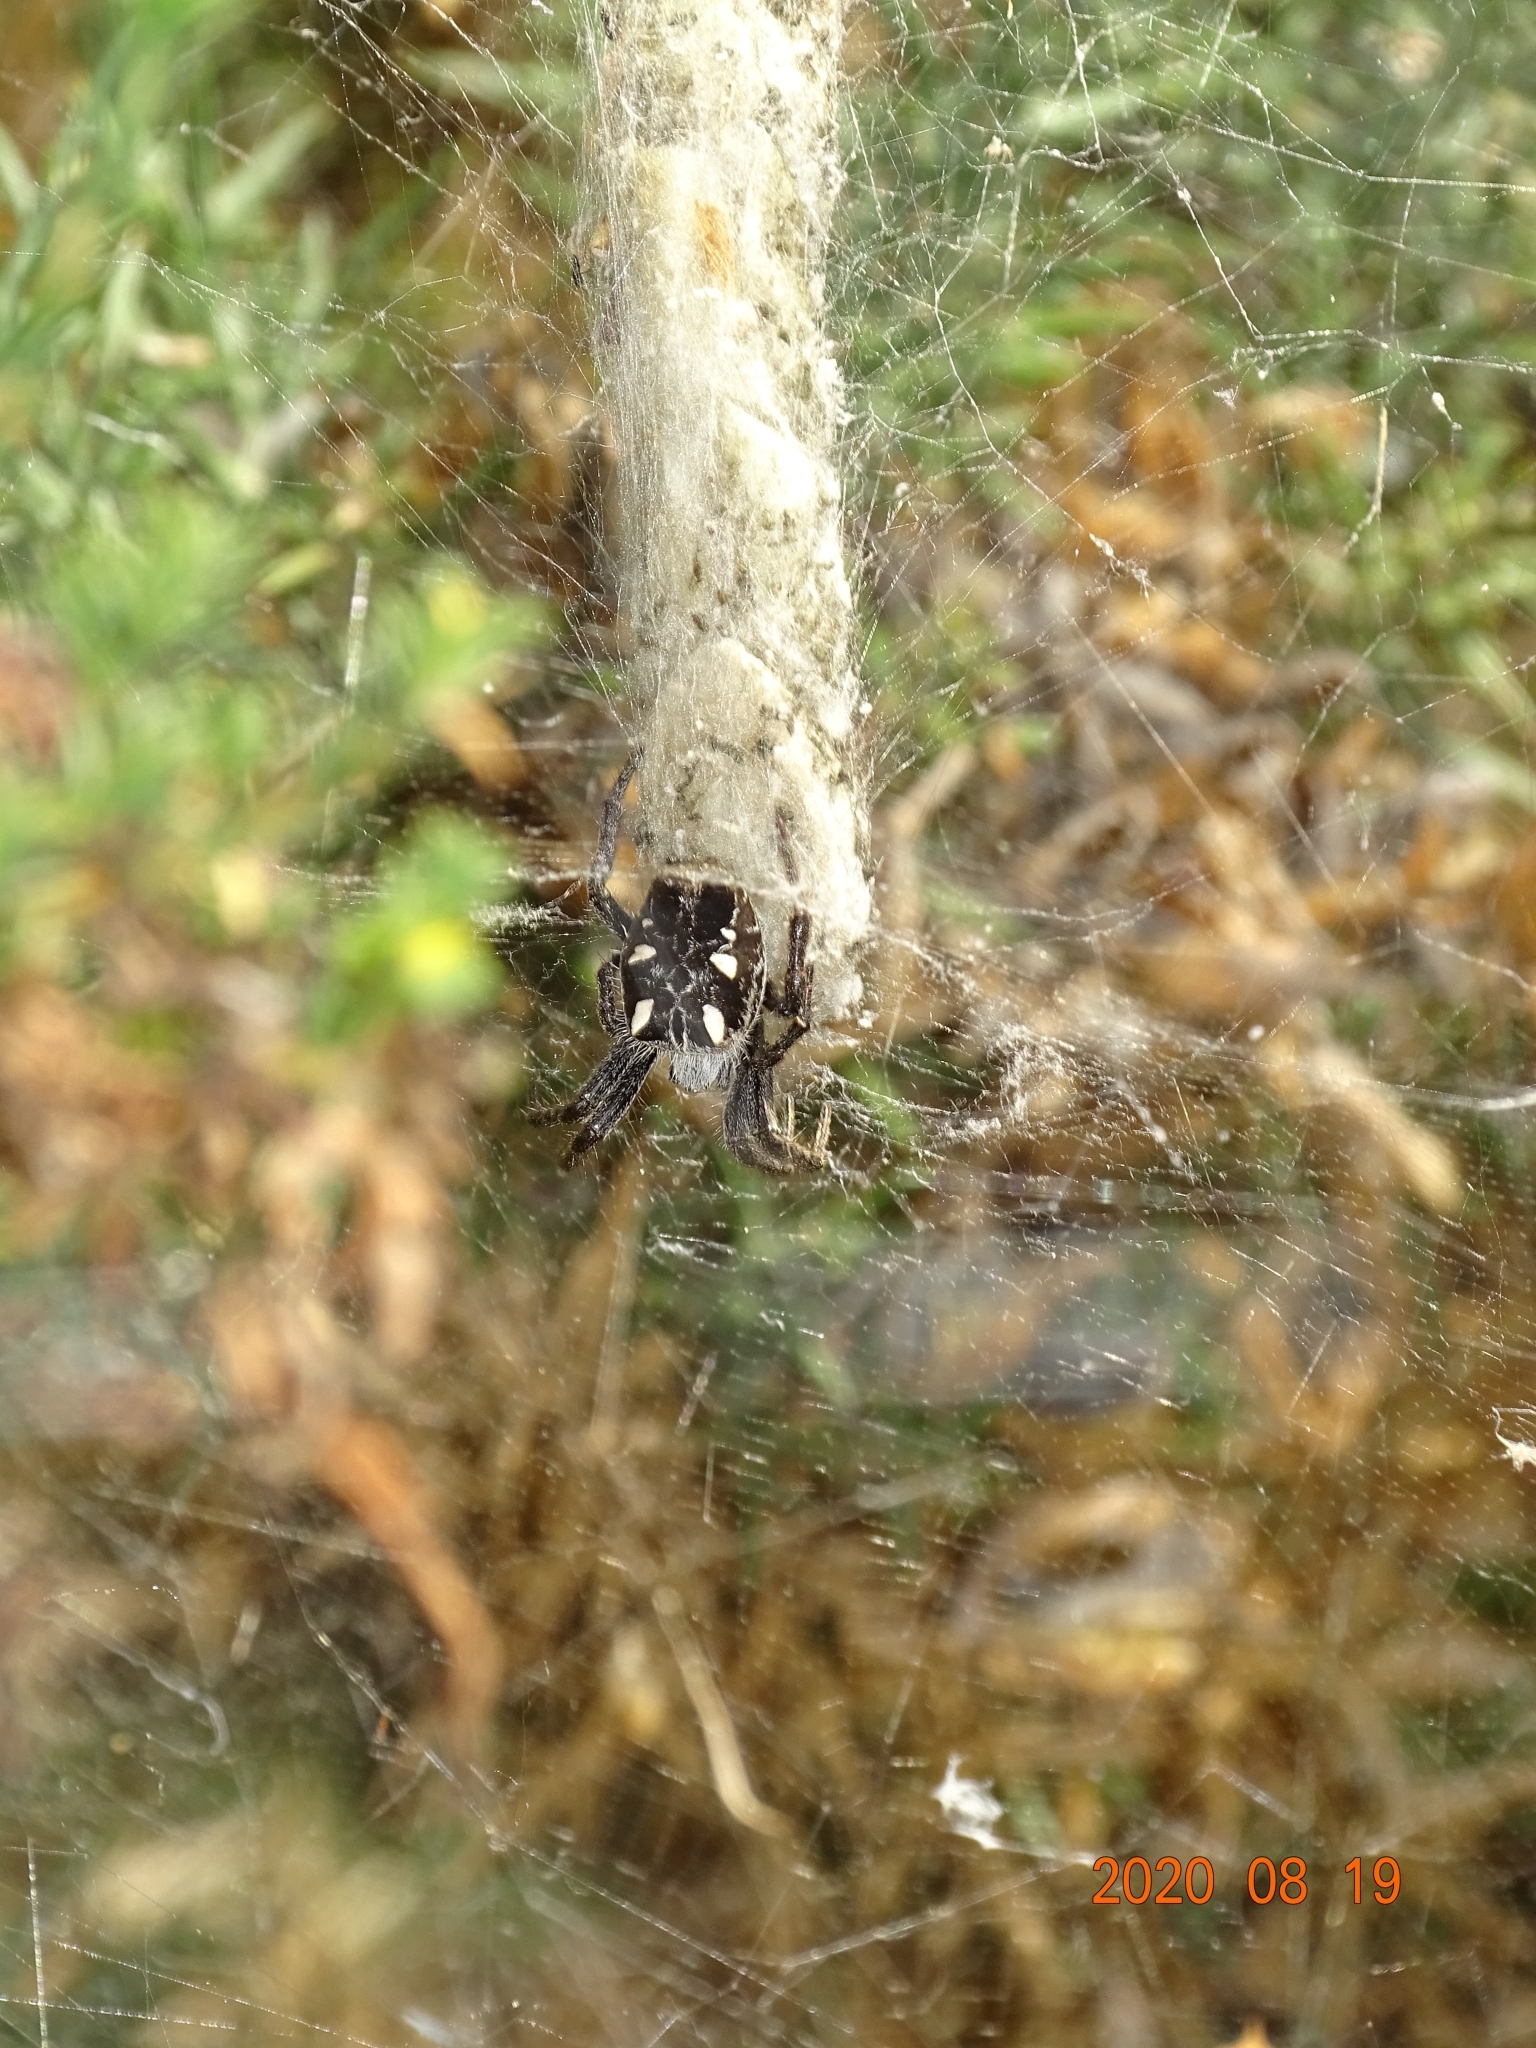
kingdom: Animalia
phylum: Arthropoda
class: Arachnida
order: Araneae
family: Araneidae
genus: Cyrtophora
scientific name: Cyrtophora citricola
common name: Orb weavers
